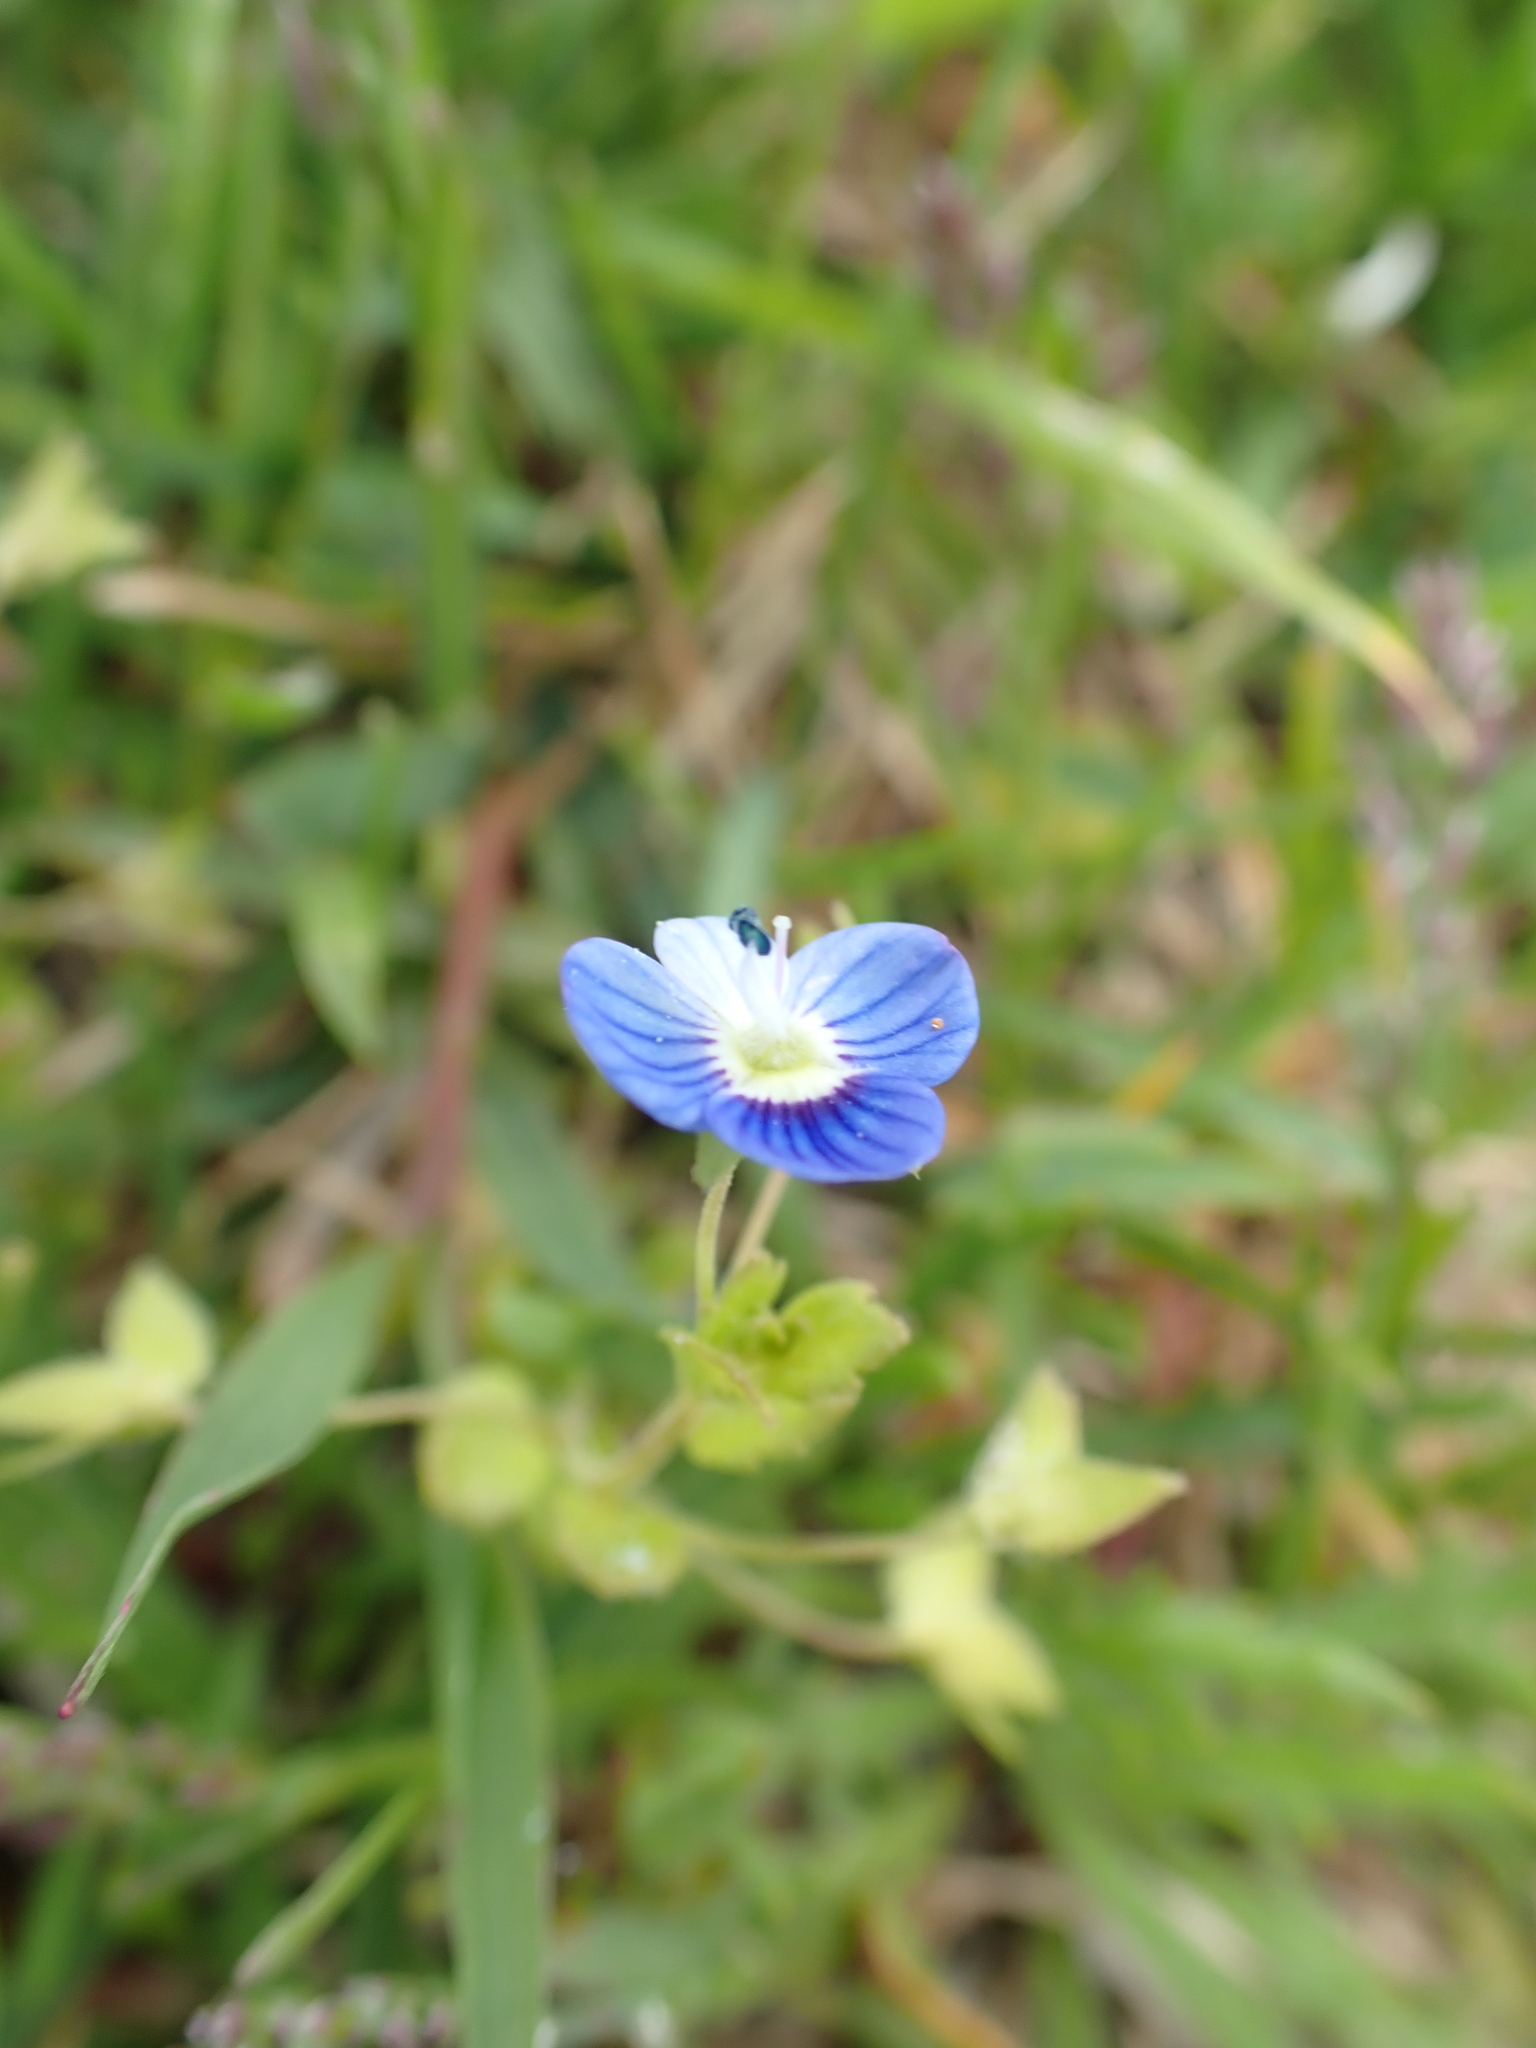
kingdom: Plantae
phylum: Tracheophyta
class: Magnoliopsida
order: Lamiales
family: Plantaginaceae
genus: Veronica
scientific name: Veronica persica
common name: Common field-speedwell
